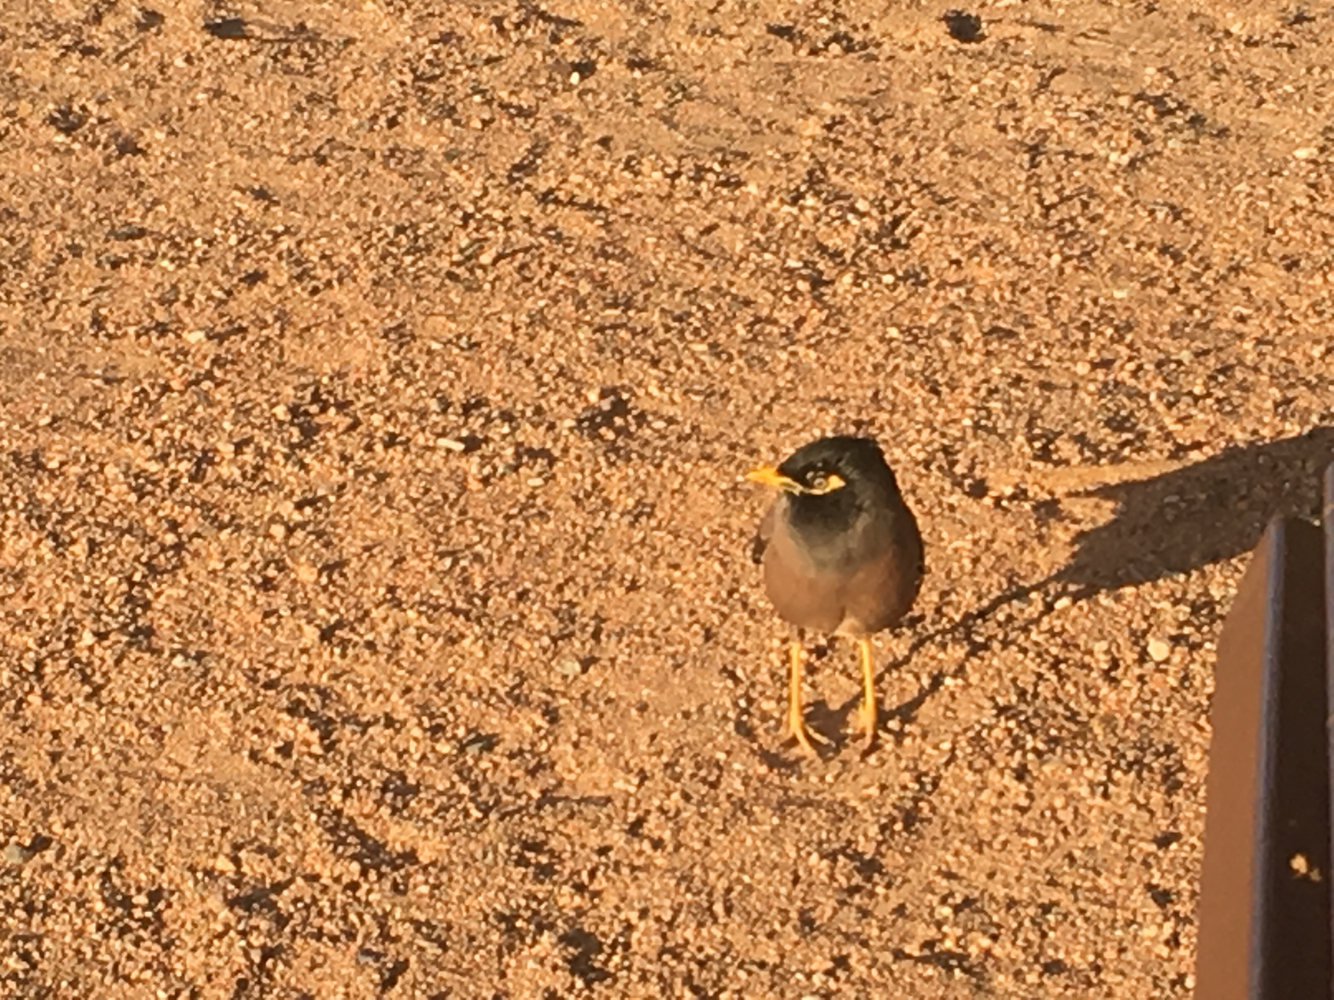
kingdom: Animalia
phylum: Chordata
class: Aves
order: Passeriformes
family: Sturnidae
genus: Acridotheres
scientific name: Acridotheres tristis
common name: Common myna
